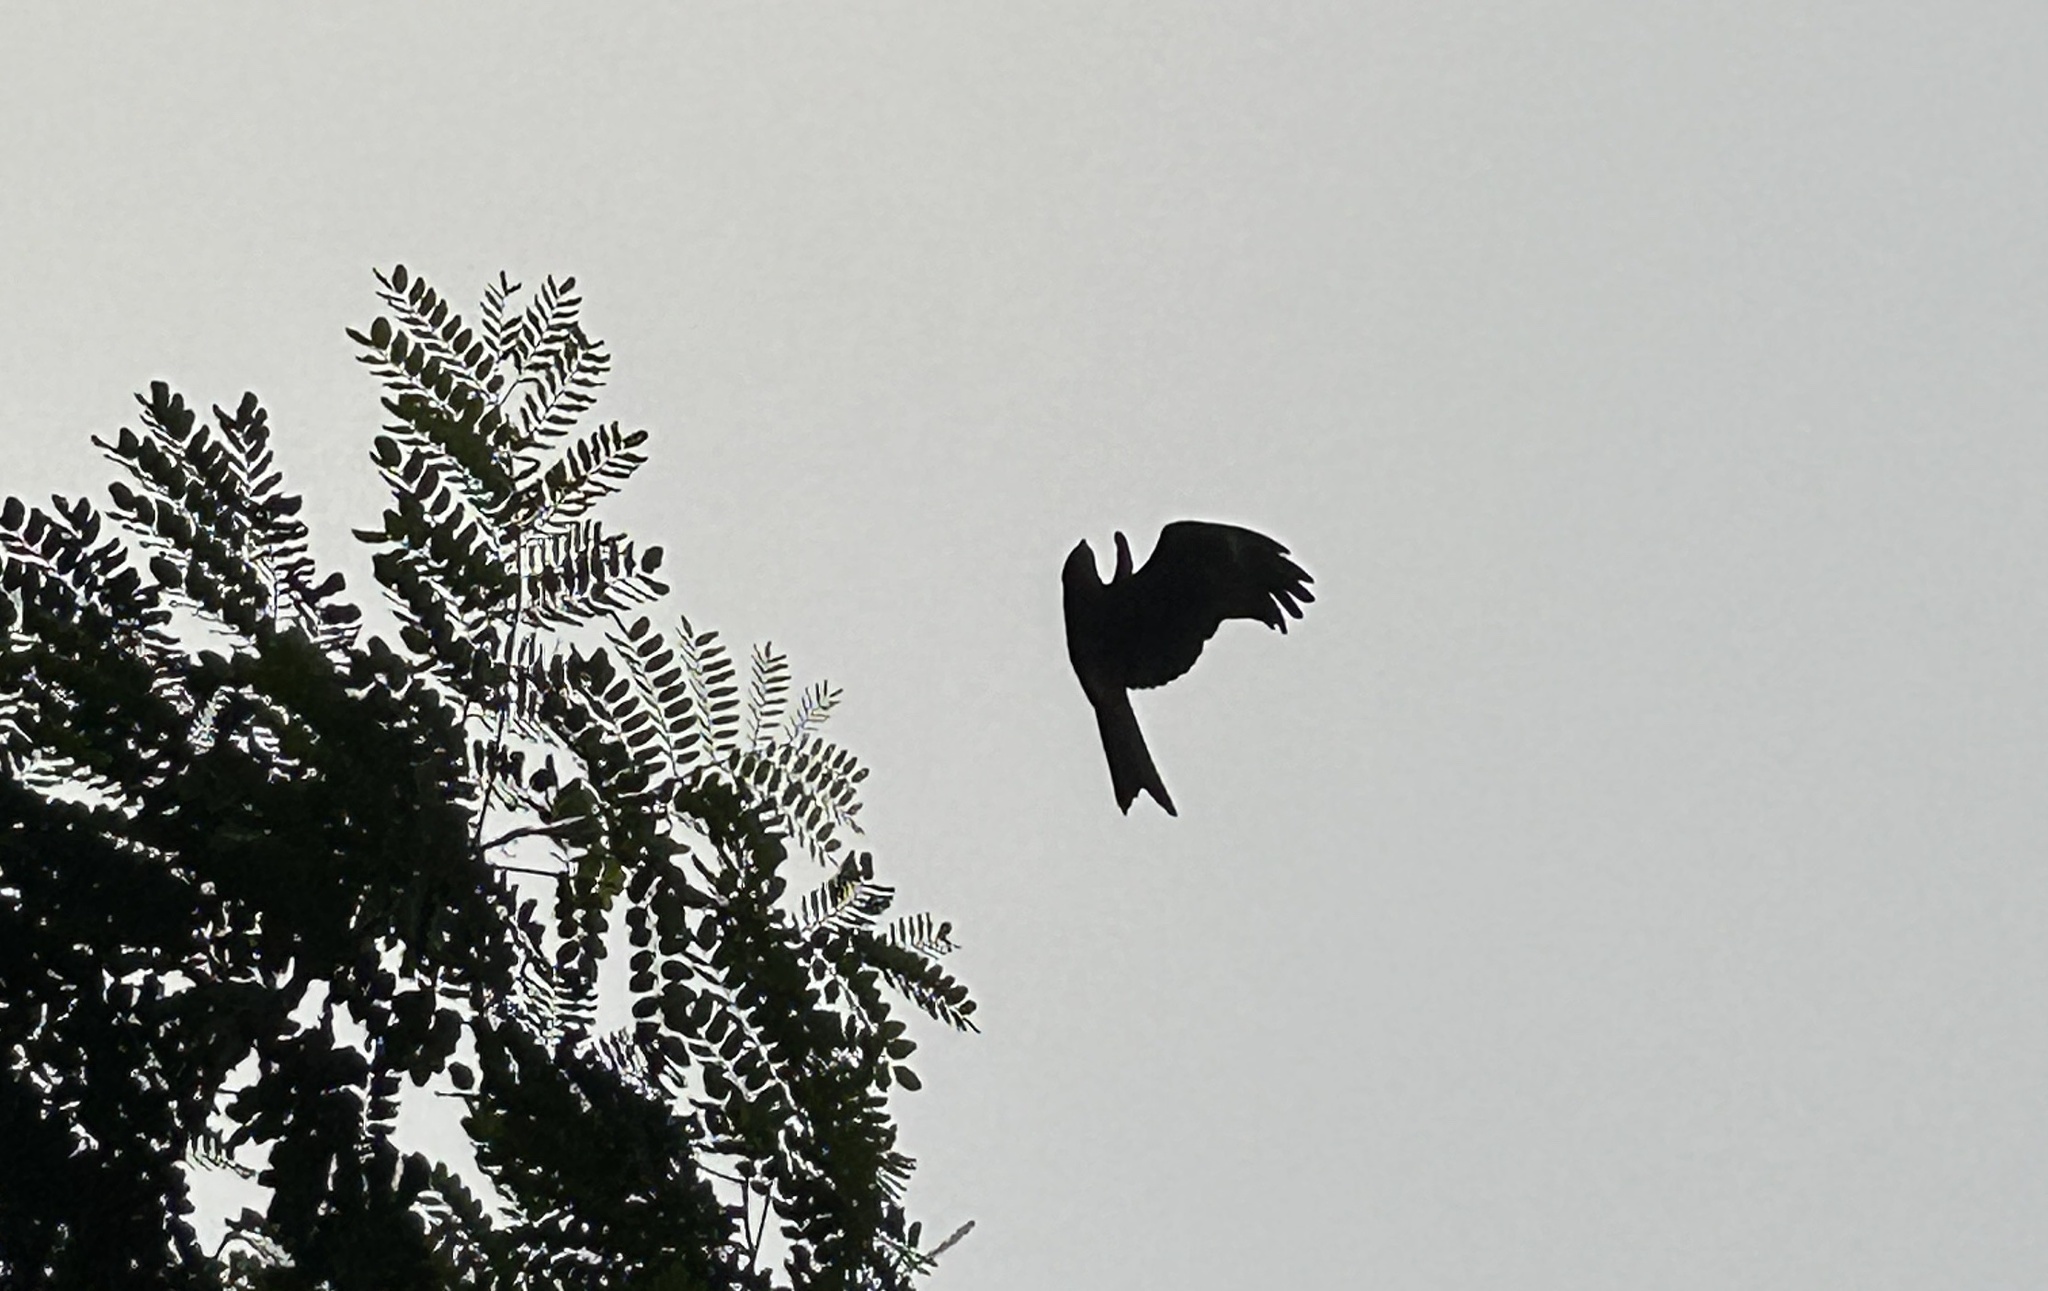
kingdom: Animalia
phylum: Chordata
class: Aves
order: Accipitriformes
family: Accipitridae
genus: Milvus
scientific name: Milvus migrans
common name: Black kite
